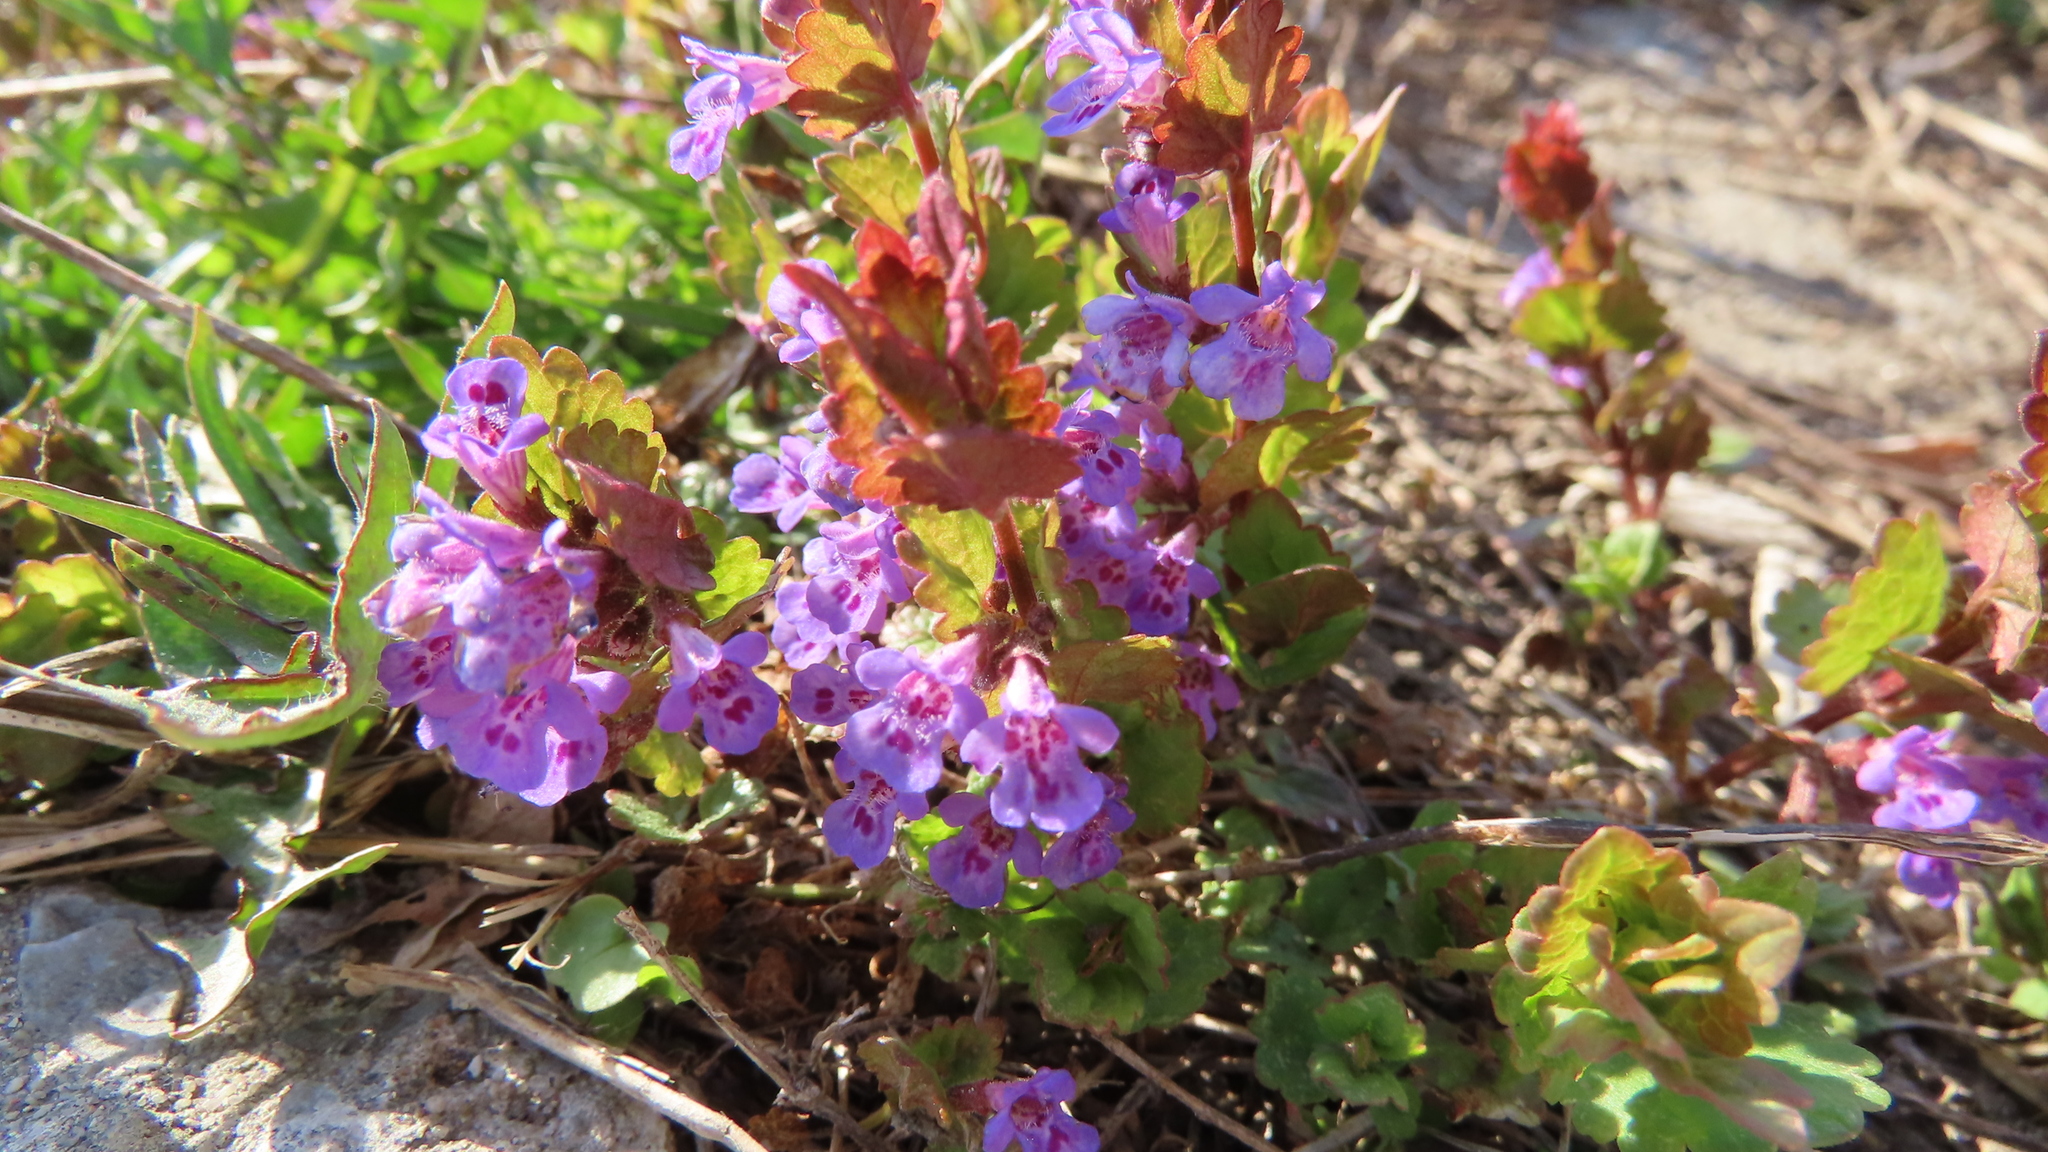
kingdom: Plantae
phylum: Tracheophyta
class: Magnoliopsida
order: Lamiales
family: Lamiaceae
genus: Glechoma
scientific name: Glechoma hederacea
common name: Ground ivy
